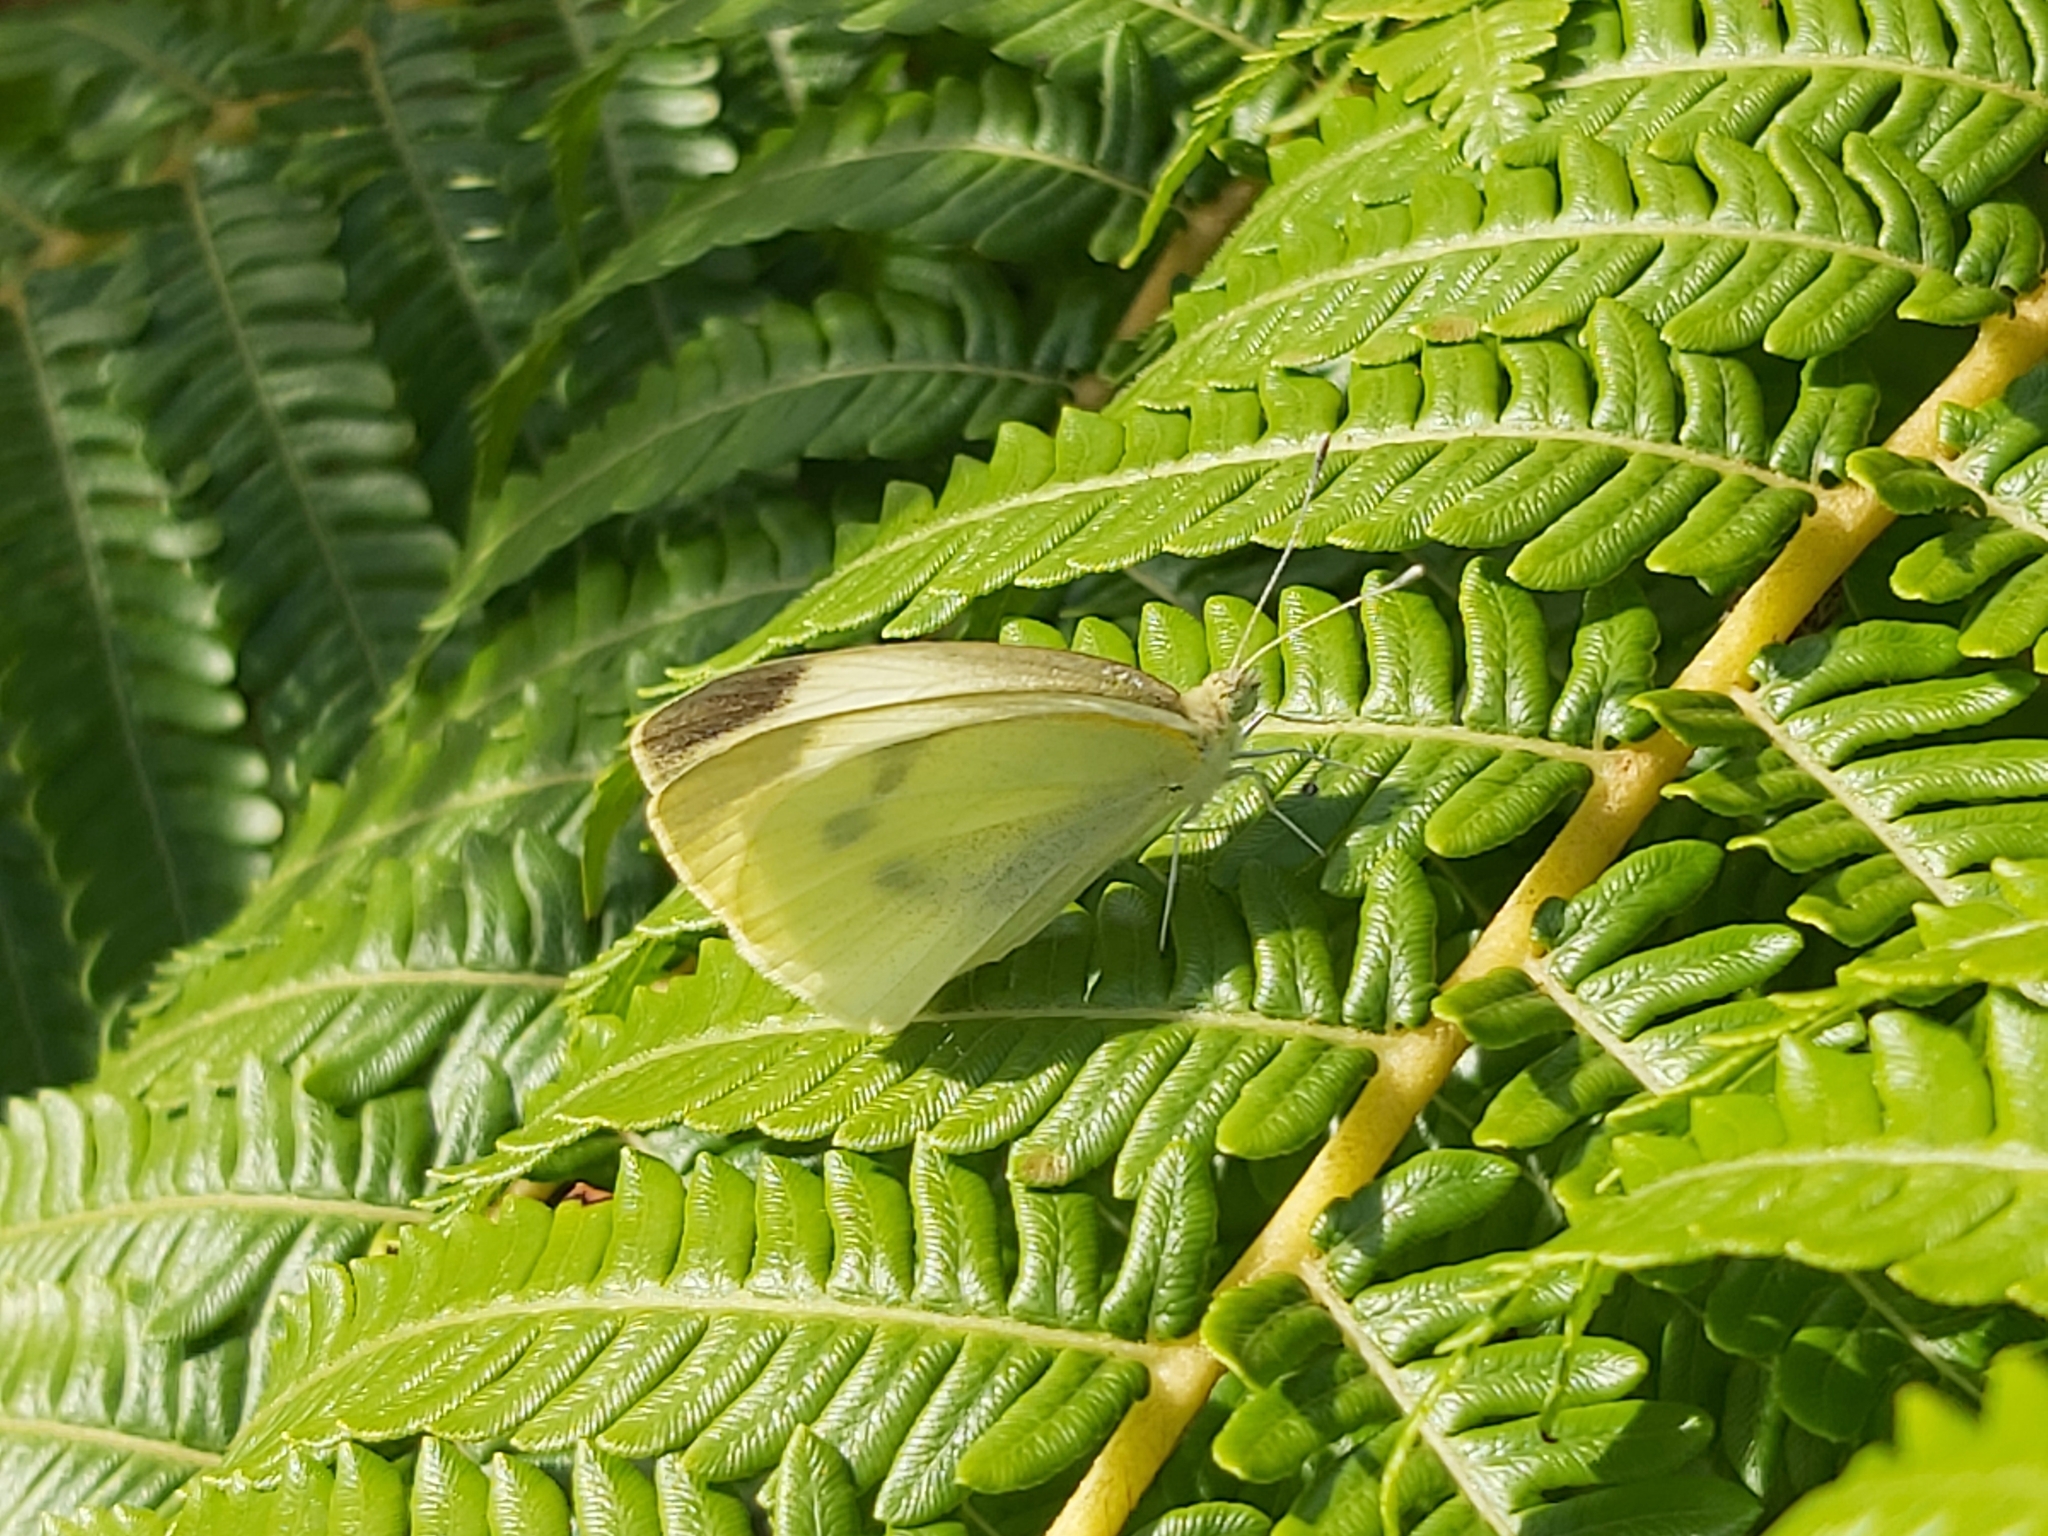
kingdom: Animalia
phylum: Arthropoda
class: Insecta
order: Lepidoptera
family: Pieridae
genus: Pieris
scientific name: Pieris rapae
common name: Small white
